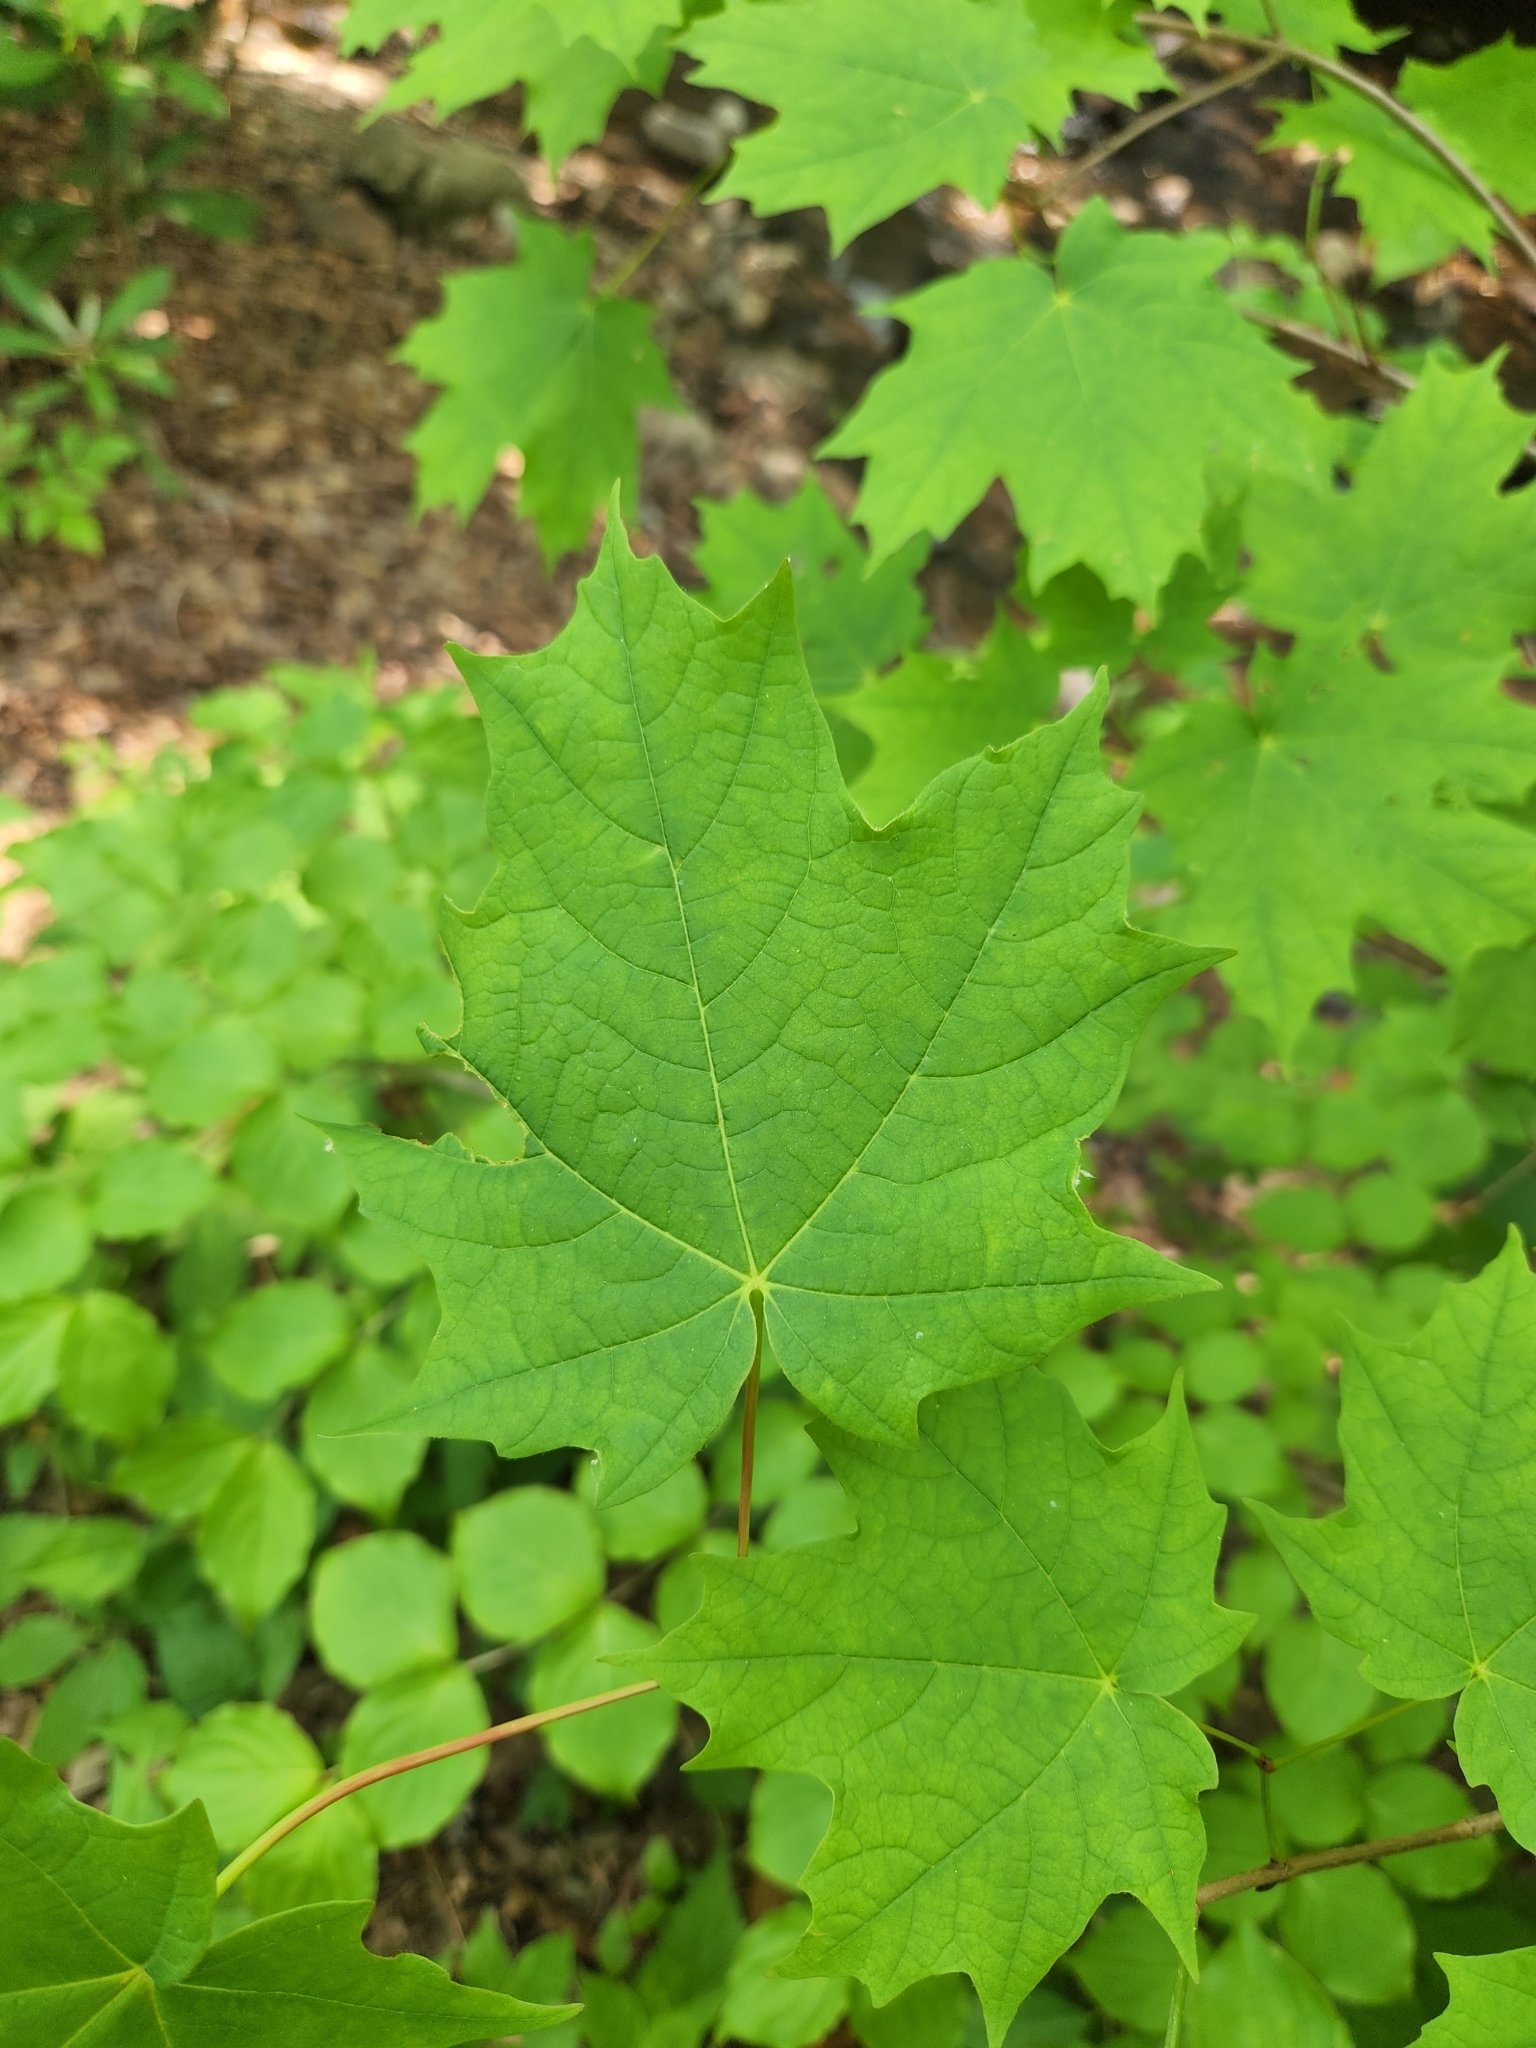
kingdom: Plantae
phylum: Tracheophyta
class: Magnoliopsida
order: Sapindales
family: Sapindaceae
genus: Acer
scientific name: Acer saccharum
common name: Sugar maple
